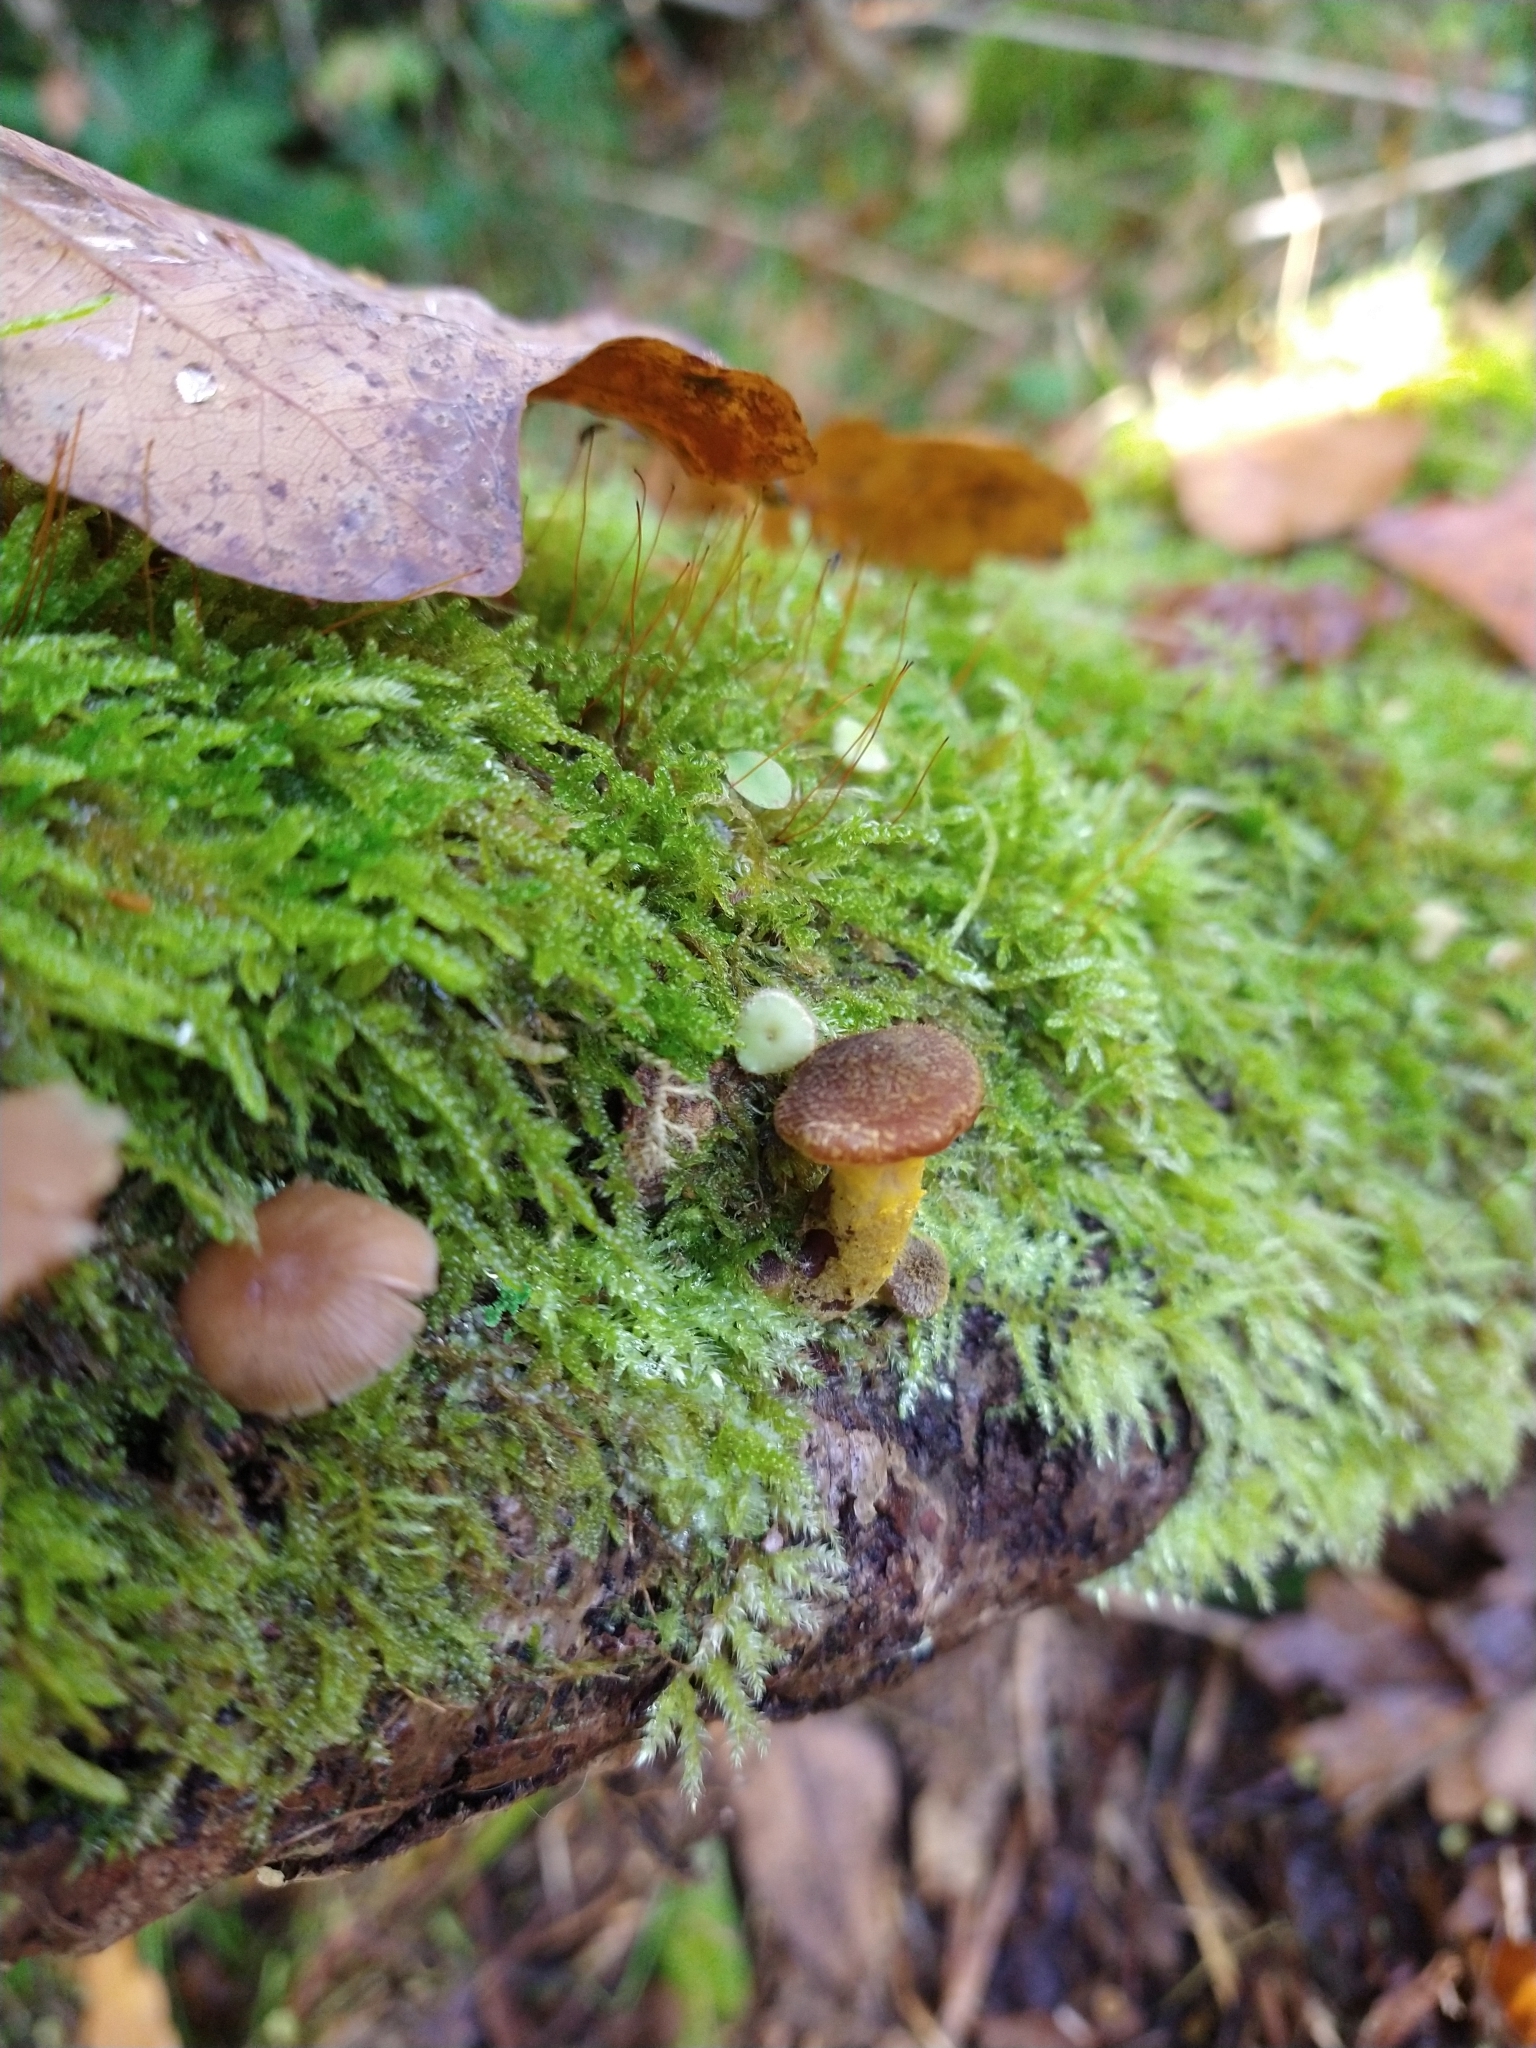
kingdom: Fungi
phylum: Basidiomycota
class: Agaricomycetes
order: Agaricales
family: Physalacriaceae
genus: Armillaria
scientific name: Armillaria gallica
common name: Bulbous honey fungus
